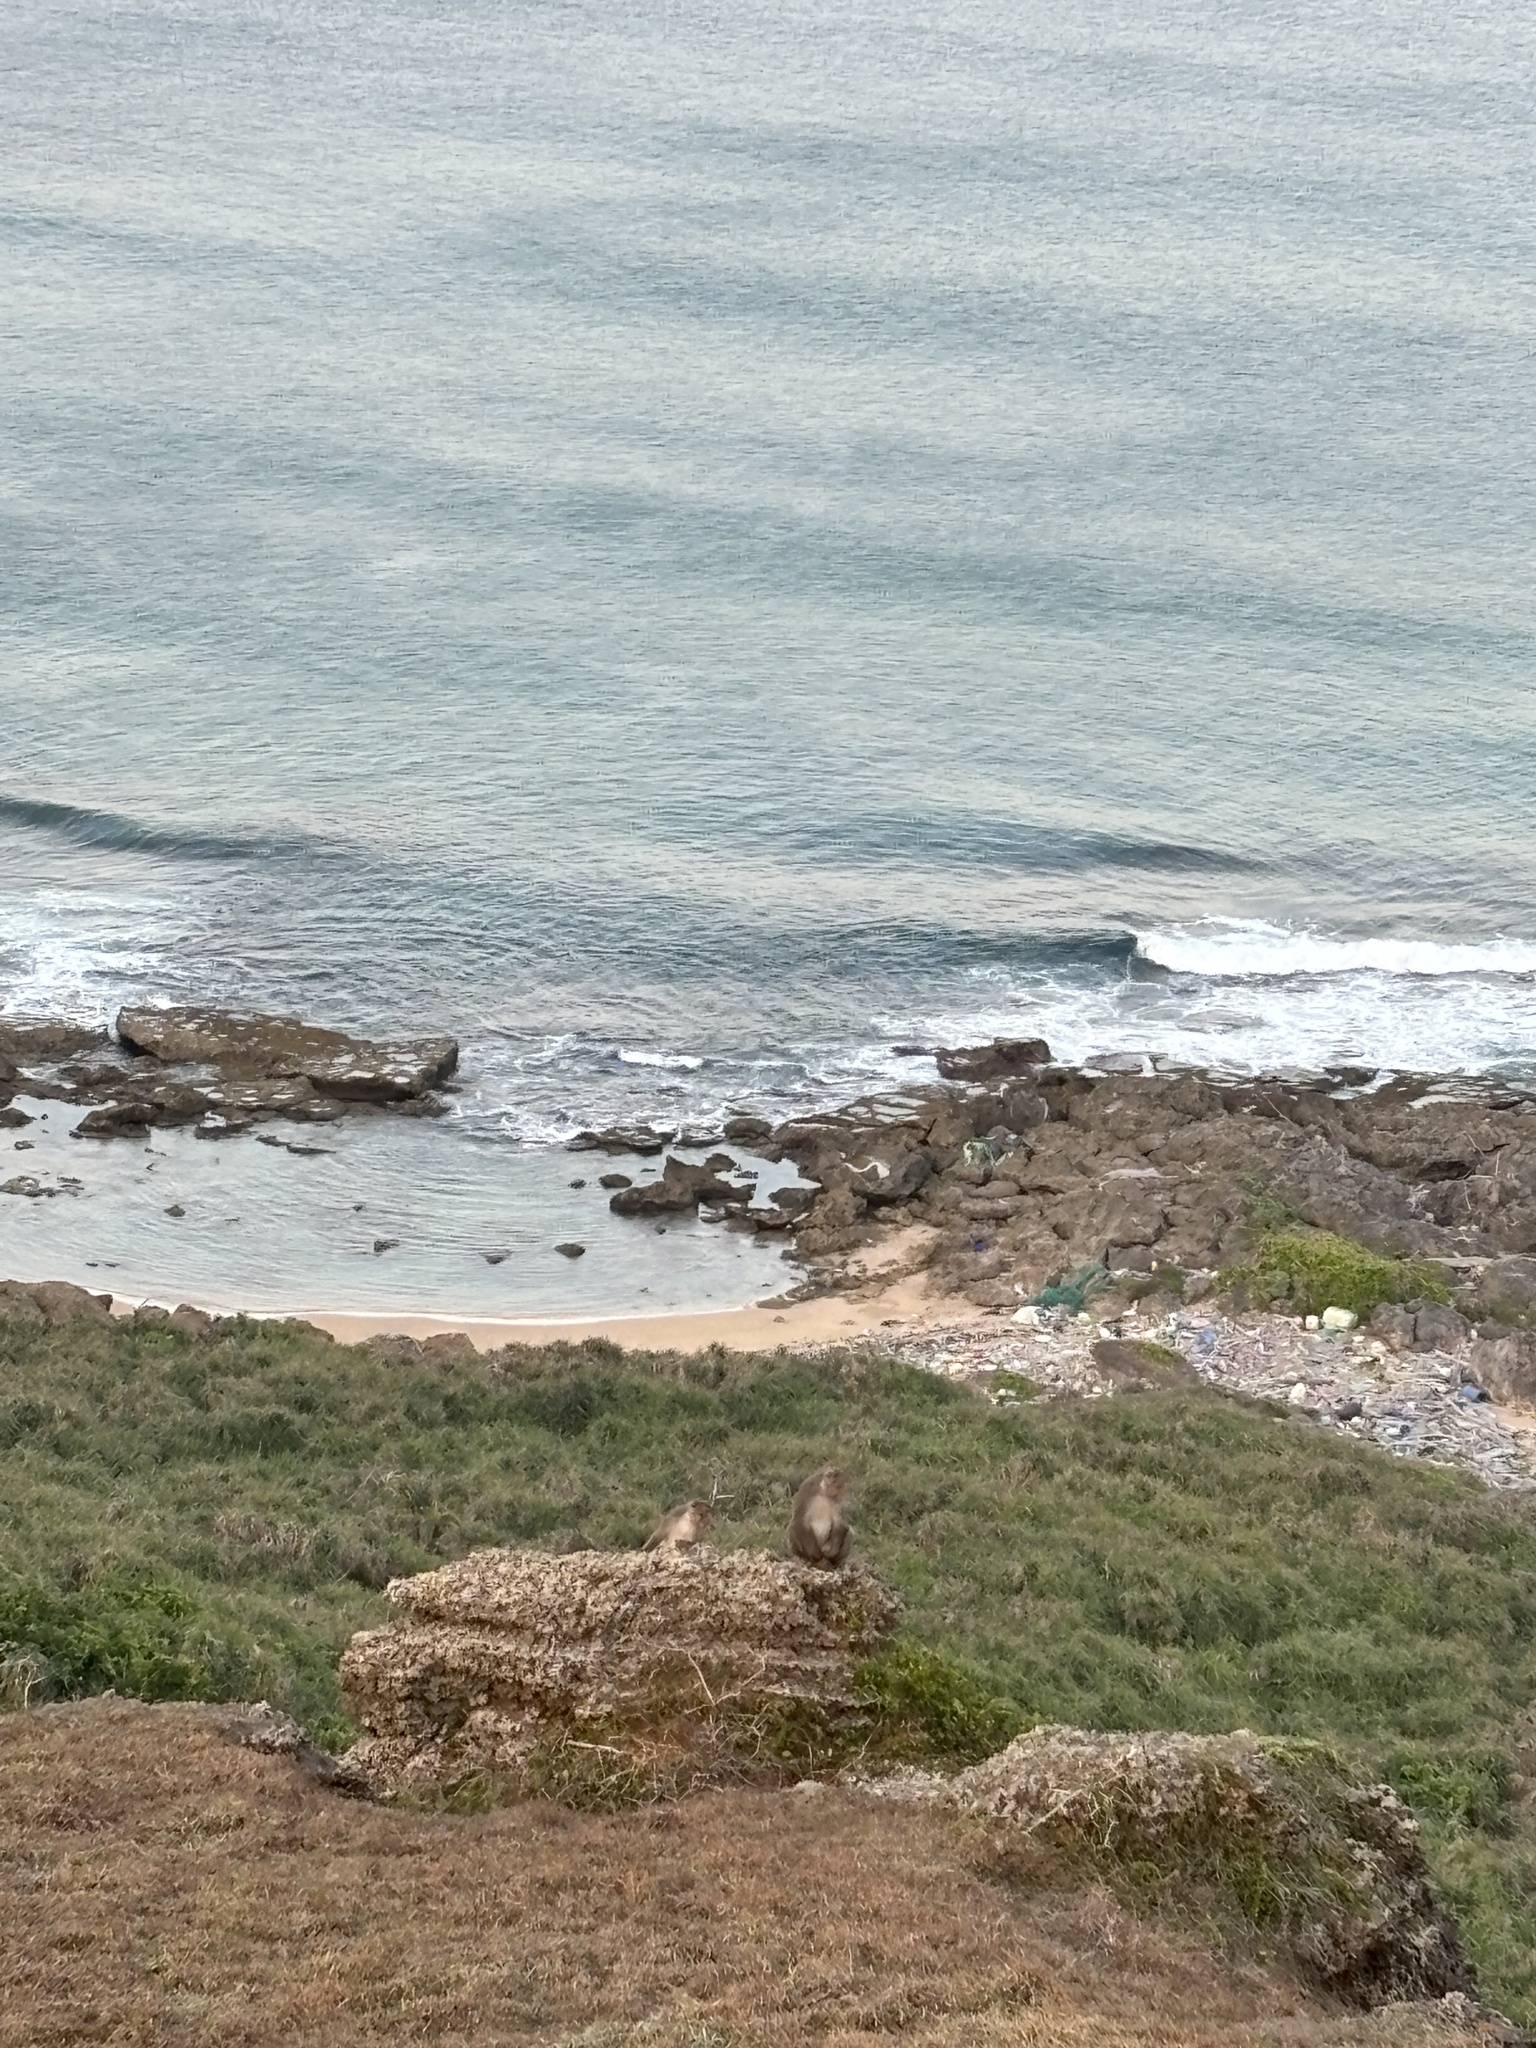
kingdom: Animalia
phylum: Chordata
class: Mammalia
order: Primates
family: Cercopithecidae
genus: Macaca
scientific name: Macaca cyclopis
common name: Formosan rock macaque
